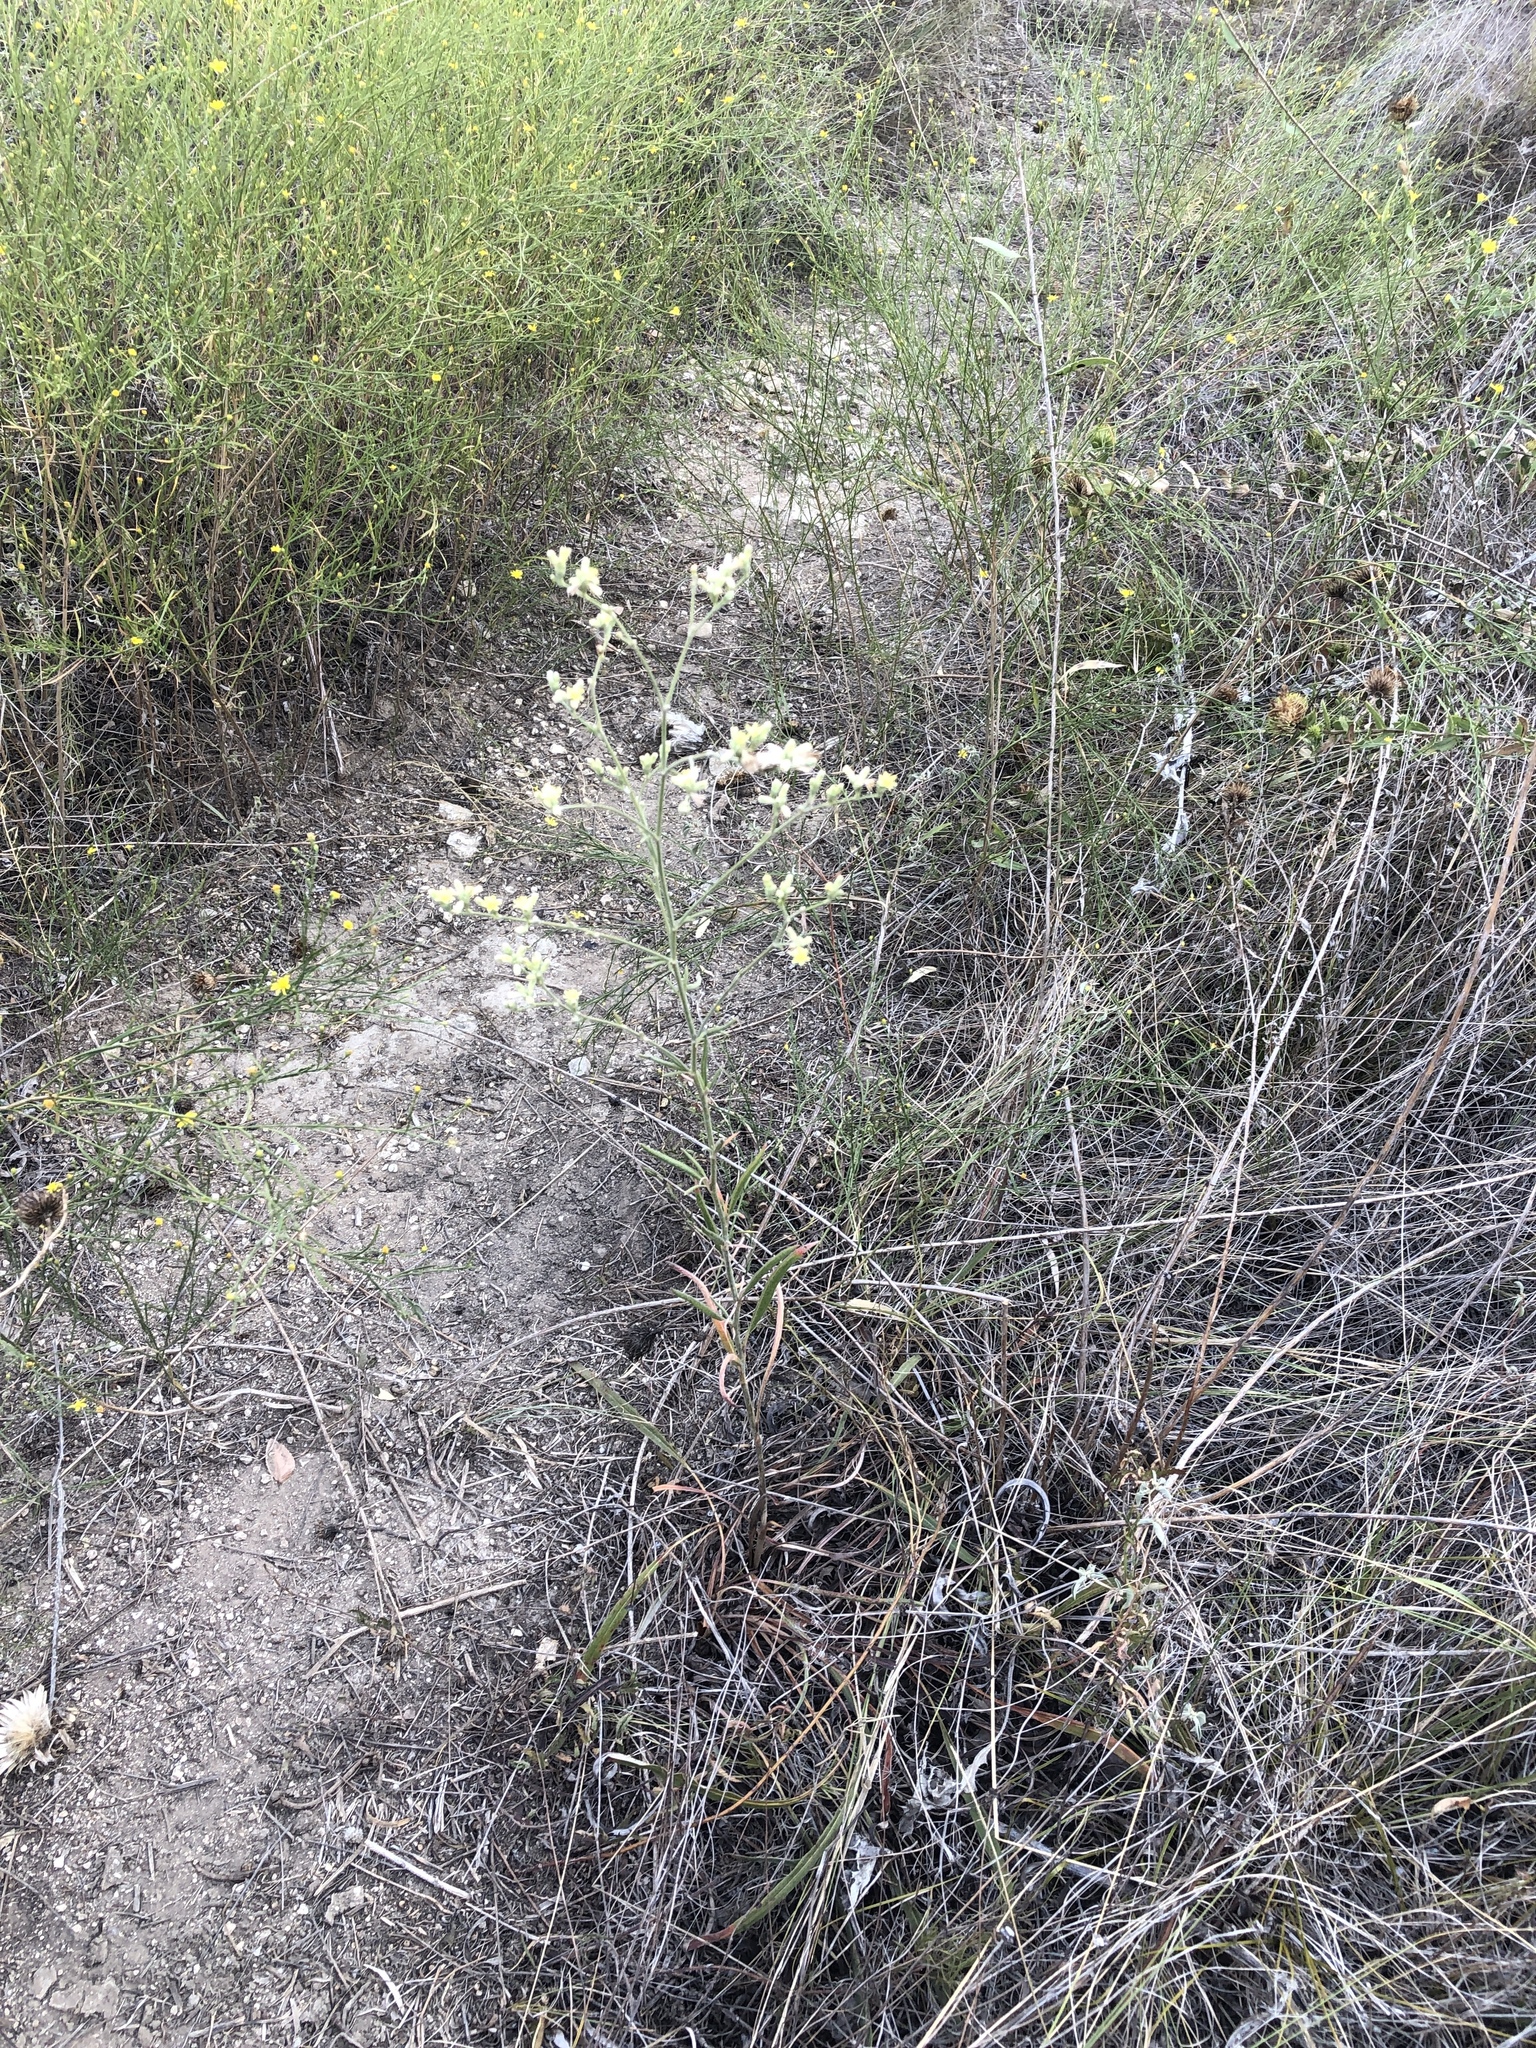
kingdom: Plantae
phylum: Tracheophyta
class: Magnoliopsida
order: Caryophyllales
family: Polygonaceae
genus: Eriogonum
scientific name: Eriogonum longifolium
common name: Longleaf wild buckwheat
